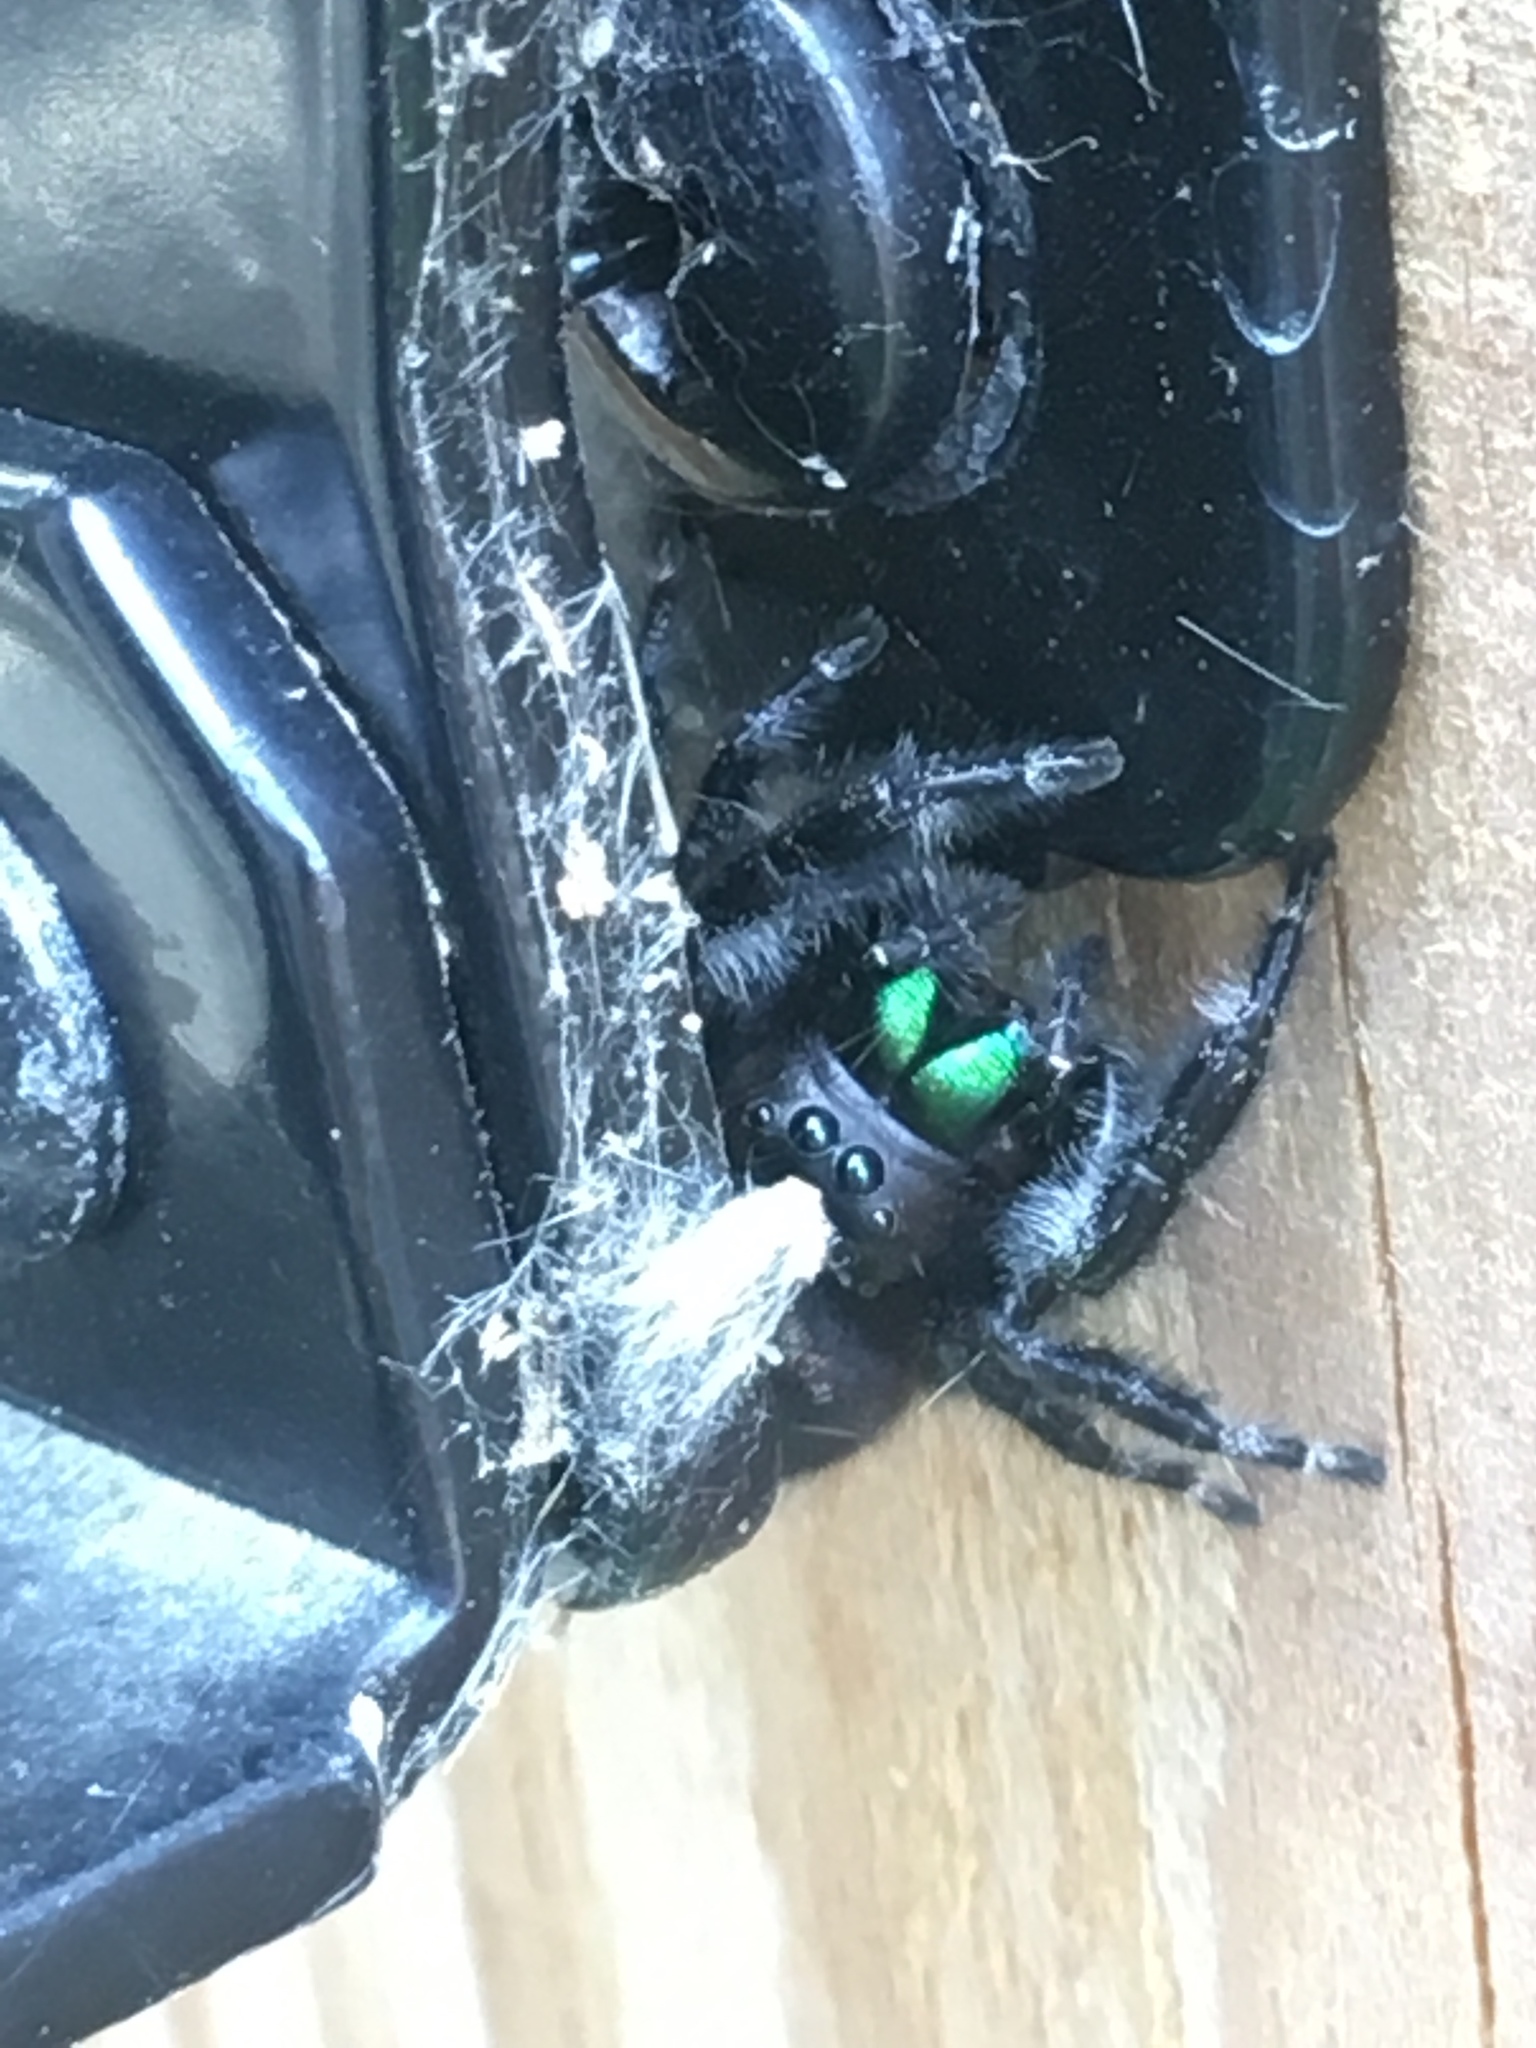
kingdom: Animalia
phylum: Arthropoda
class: Arachnida
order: Araneae
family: Salticidae
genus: Phidippus
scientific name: Phidippus audax
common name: Bold jumper
